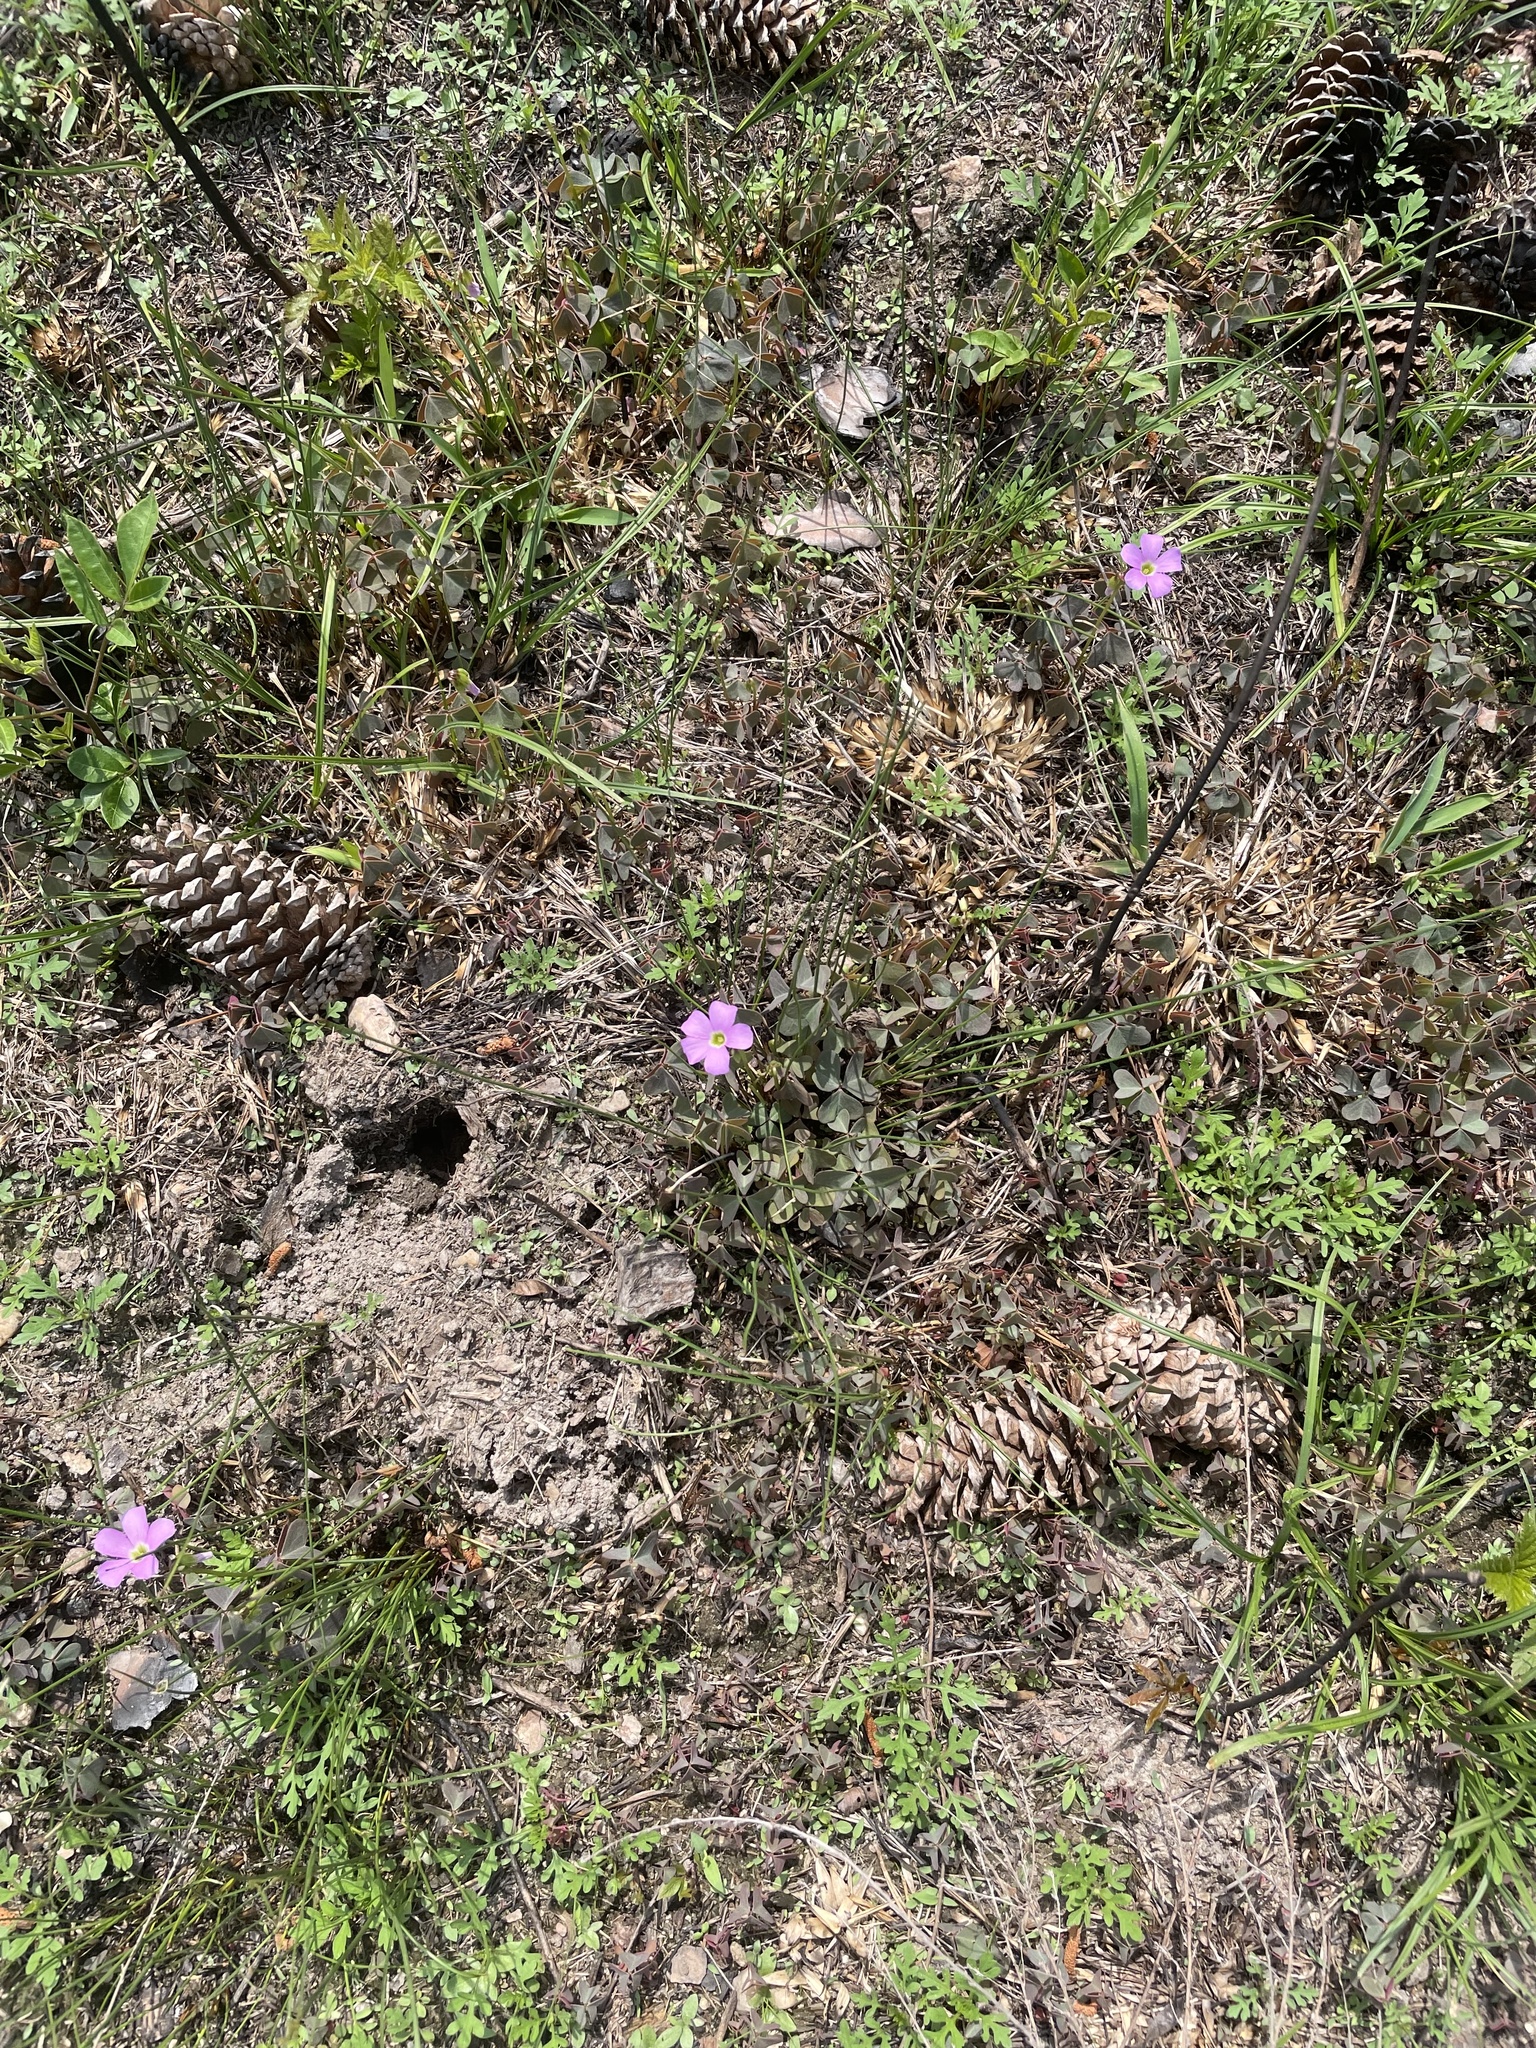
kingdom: Plantae
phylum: Tracheophyta
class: Magnoliopsida
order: Oxalidales
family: Oxalidaceae
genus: Oxalis
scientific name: Oxalis violacea
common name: Violet wood-sorrel
